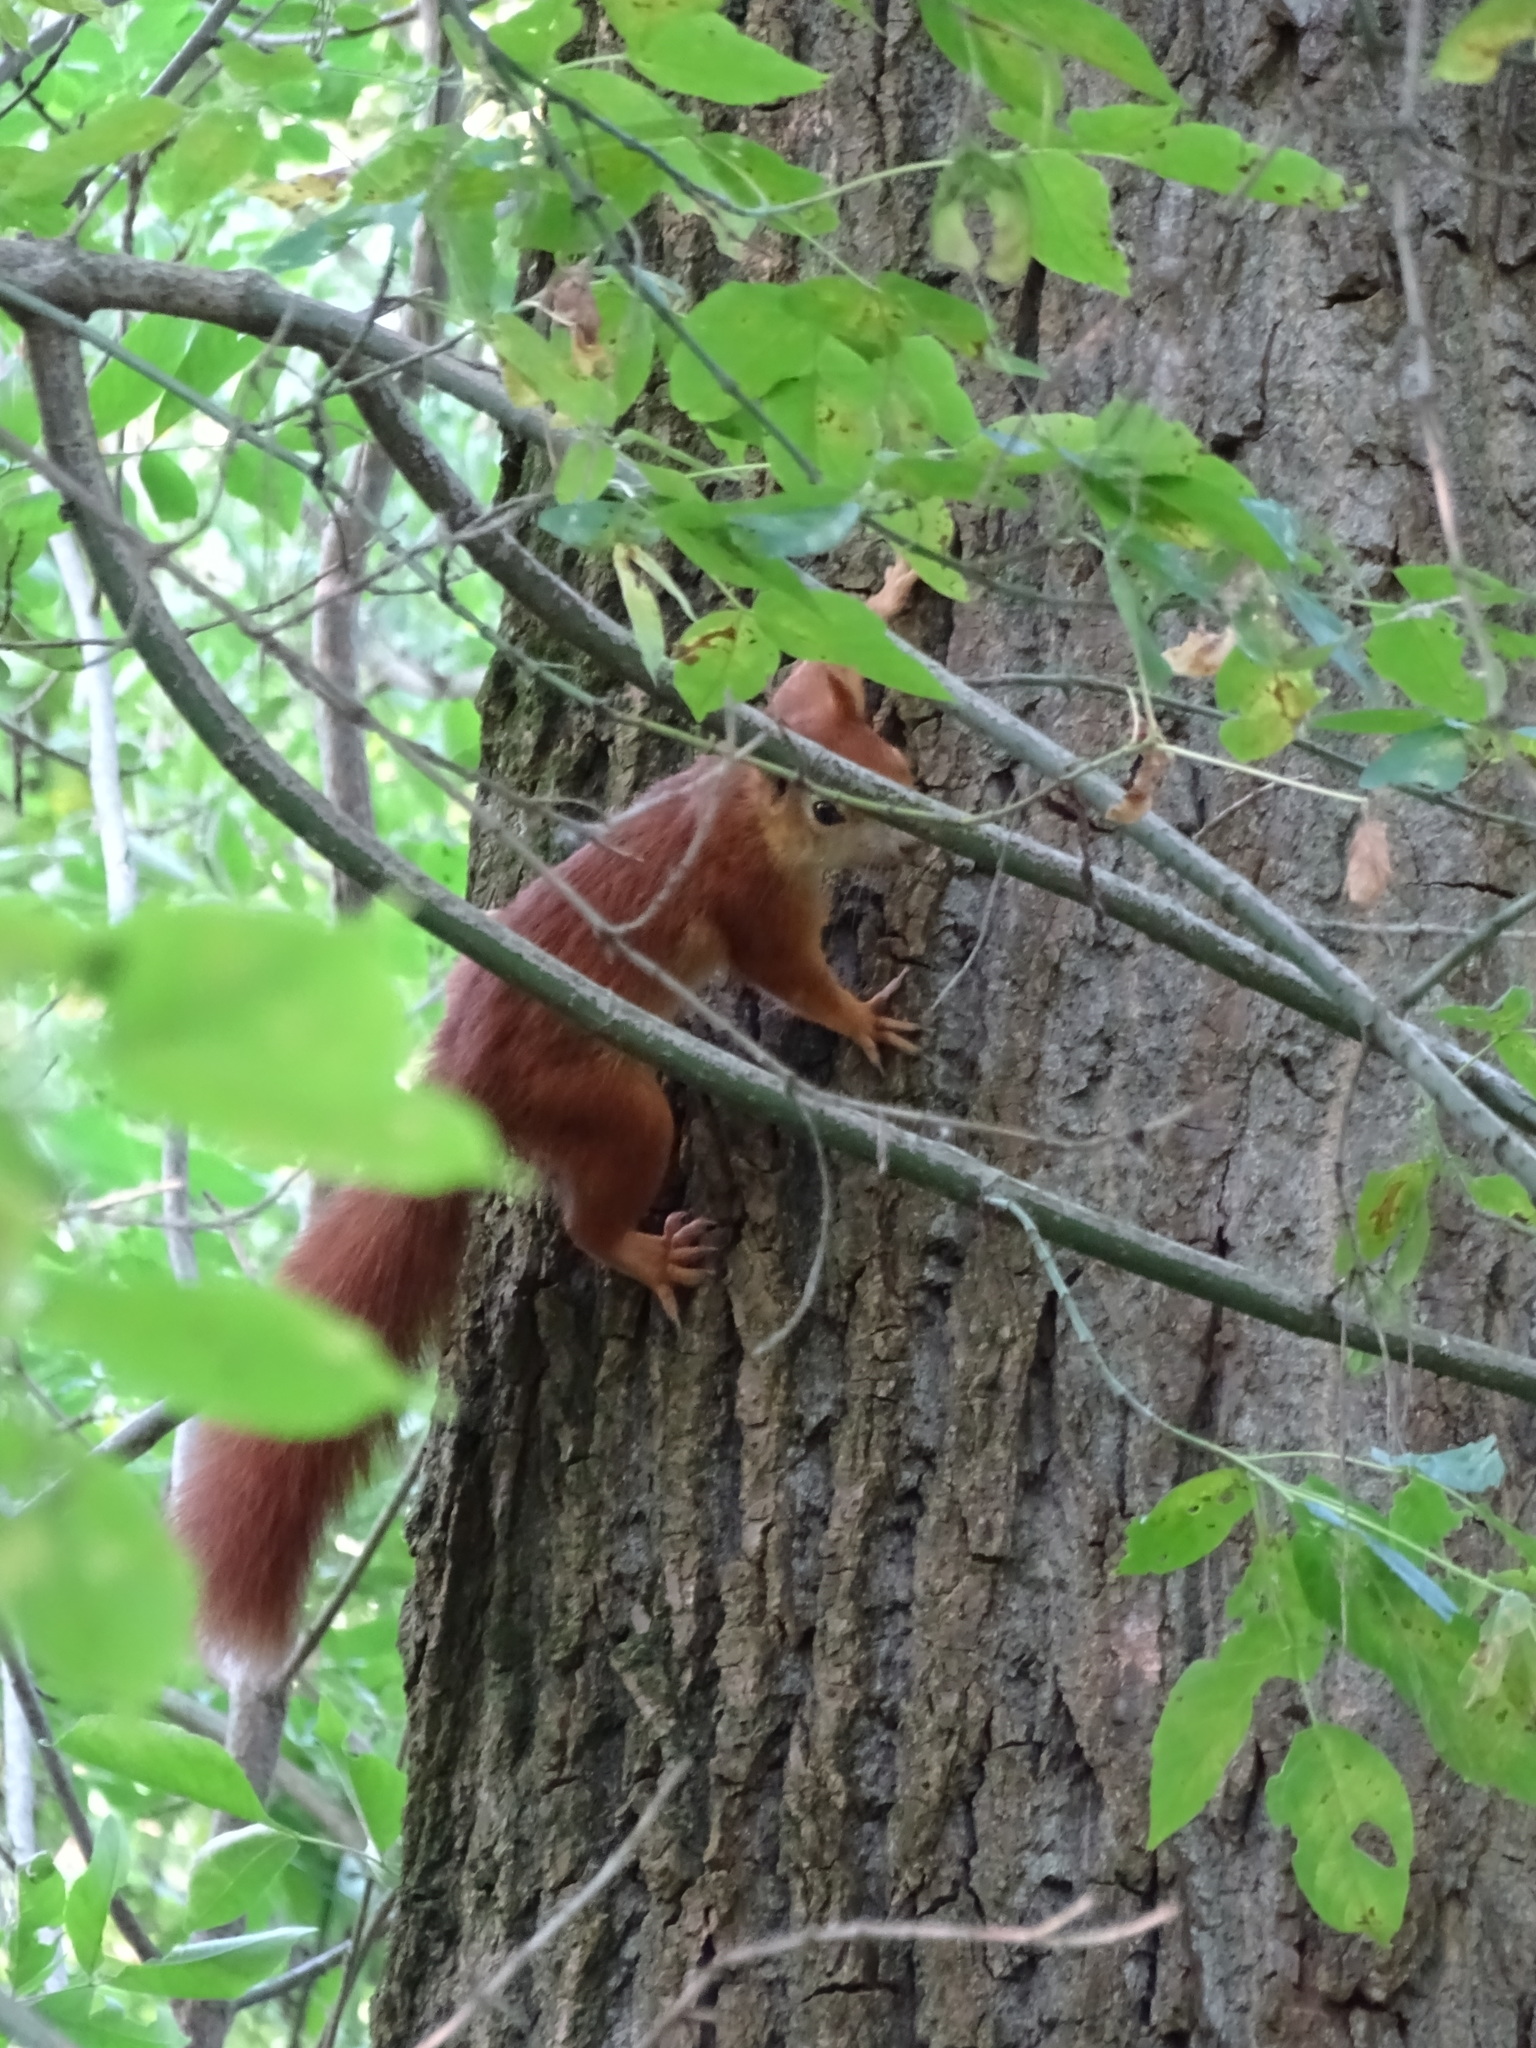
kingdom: Animalia
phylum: Chordata
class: Mammalia
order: Rodentia
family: Sciuridae
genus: Sciurus
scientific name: Sciurus vulgaris
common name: Eurasian red squirrel
